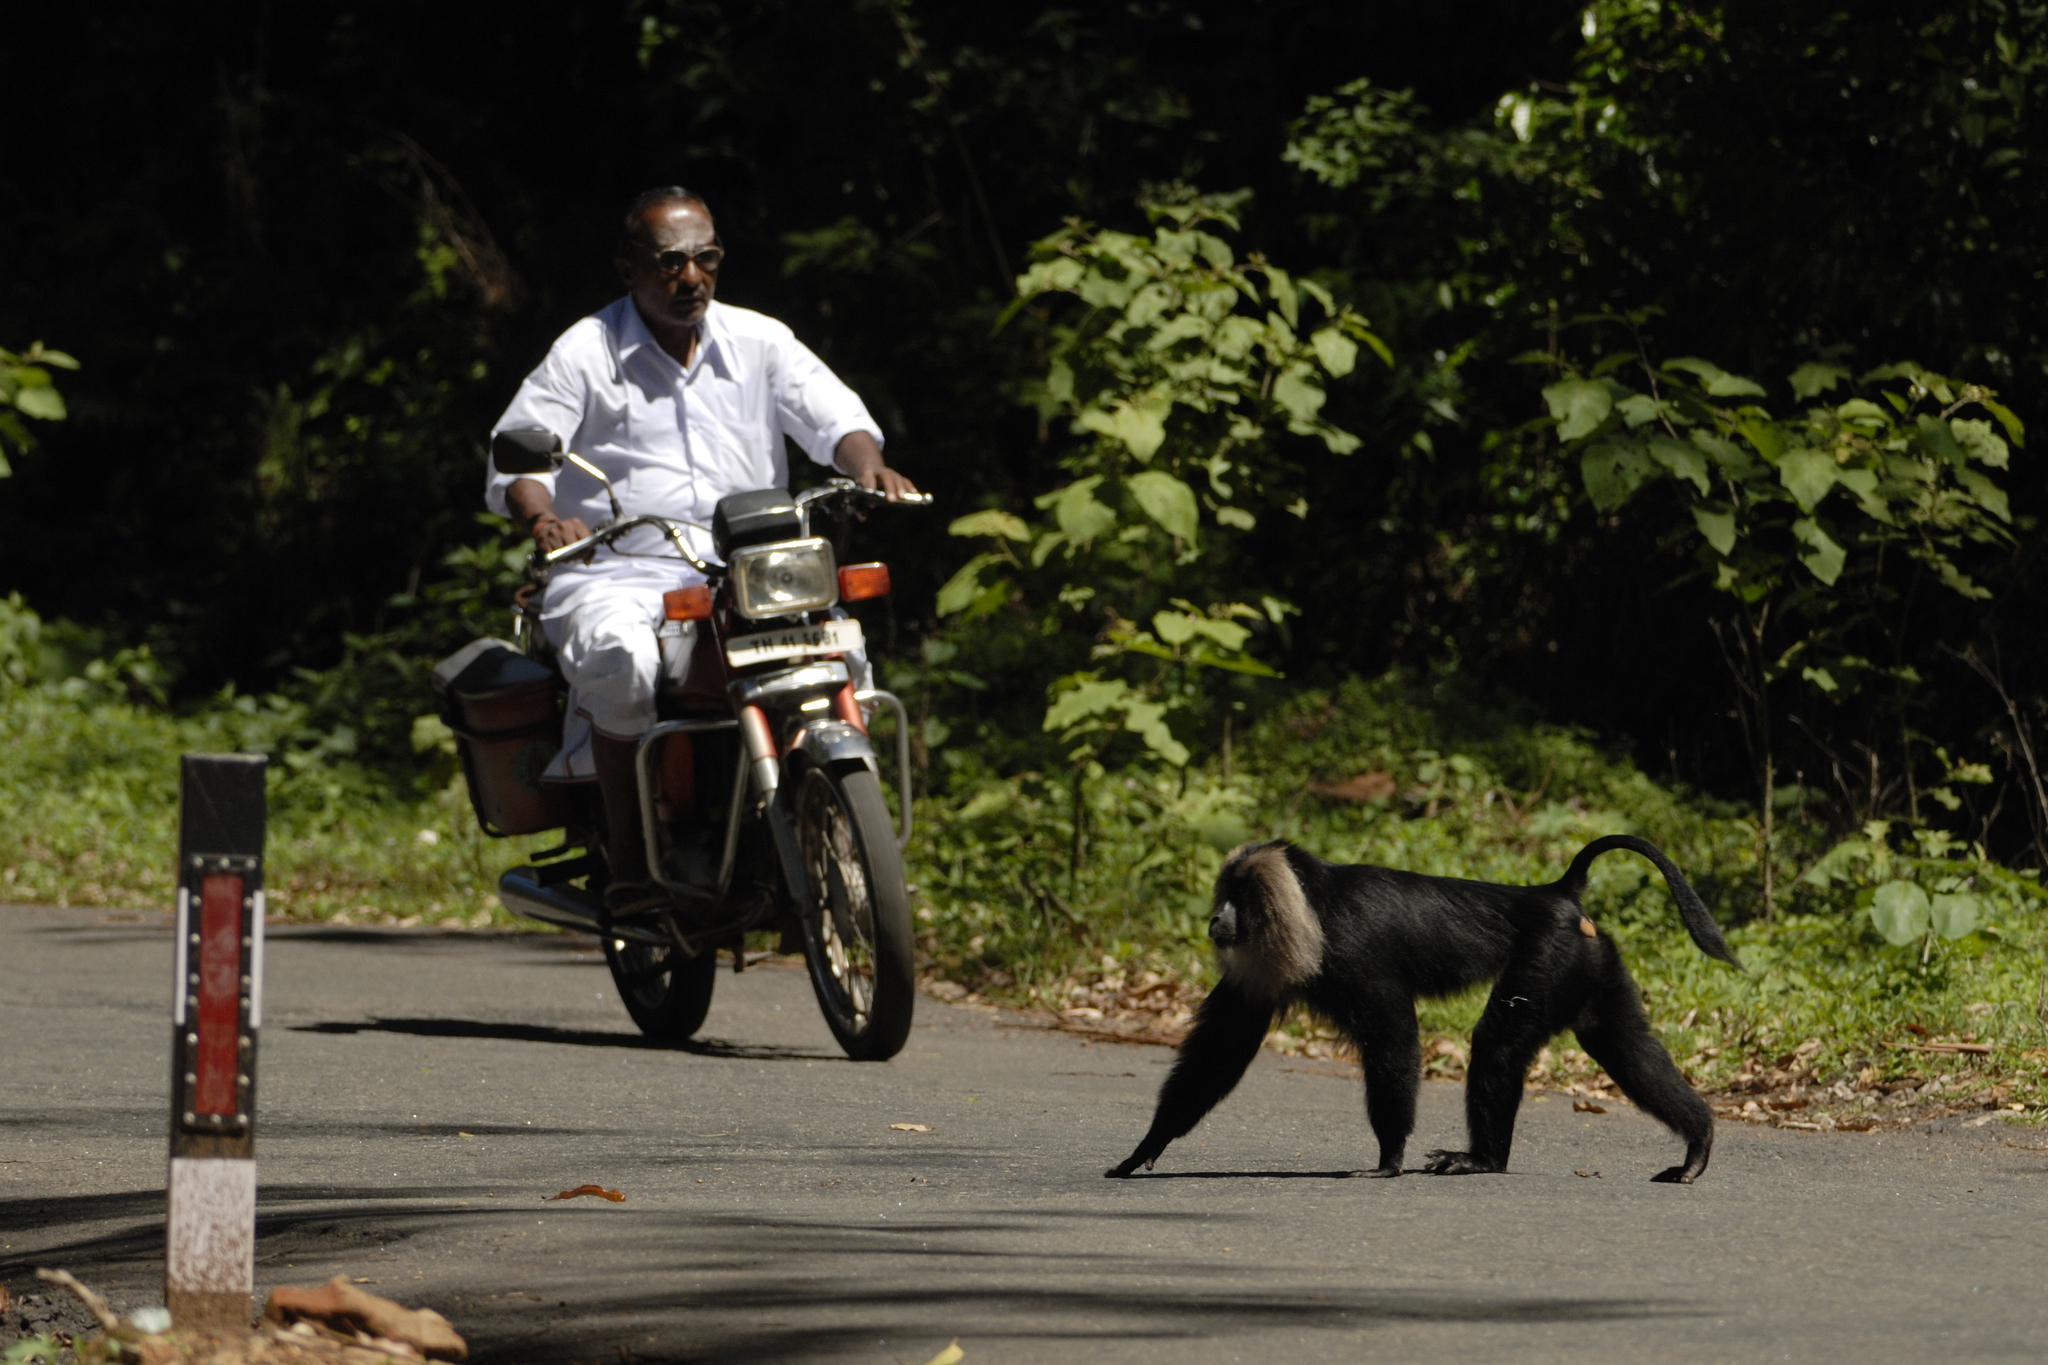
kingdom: Animalia
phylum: Chordata
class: Mammalia
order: Primates
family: Cercopithecidae
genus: Macaca
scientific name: Macaca silenus
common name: Lion-tailed macaque
